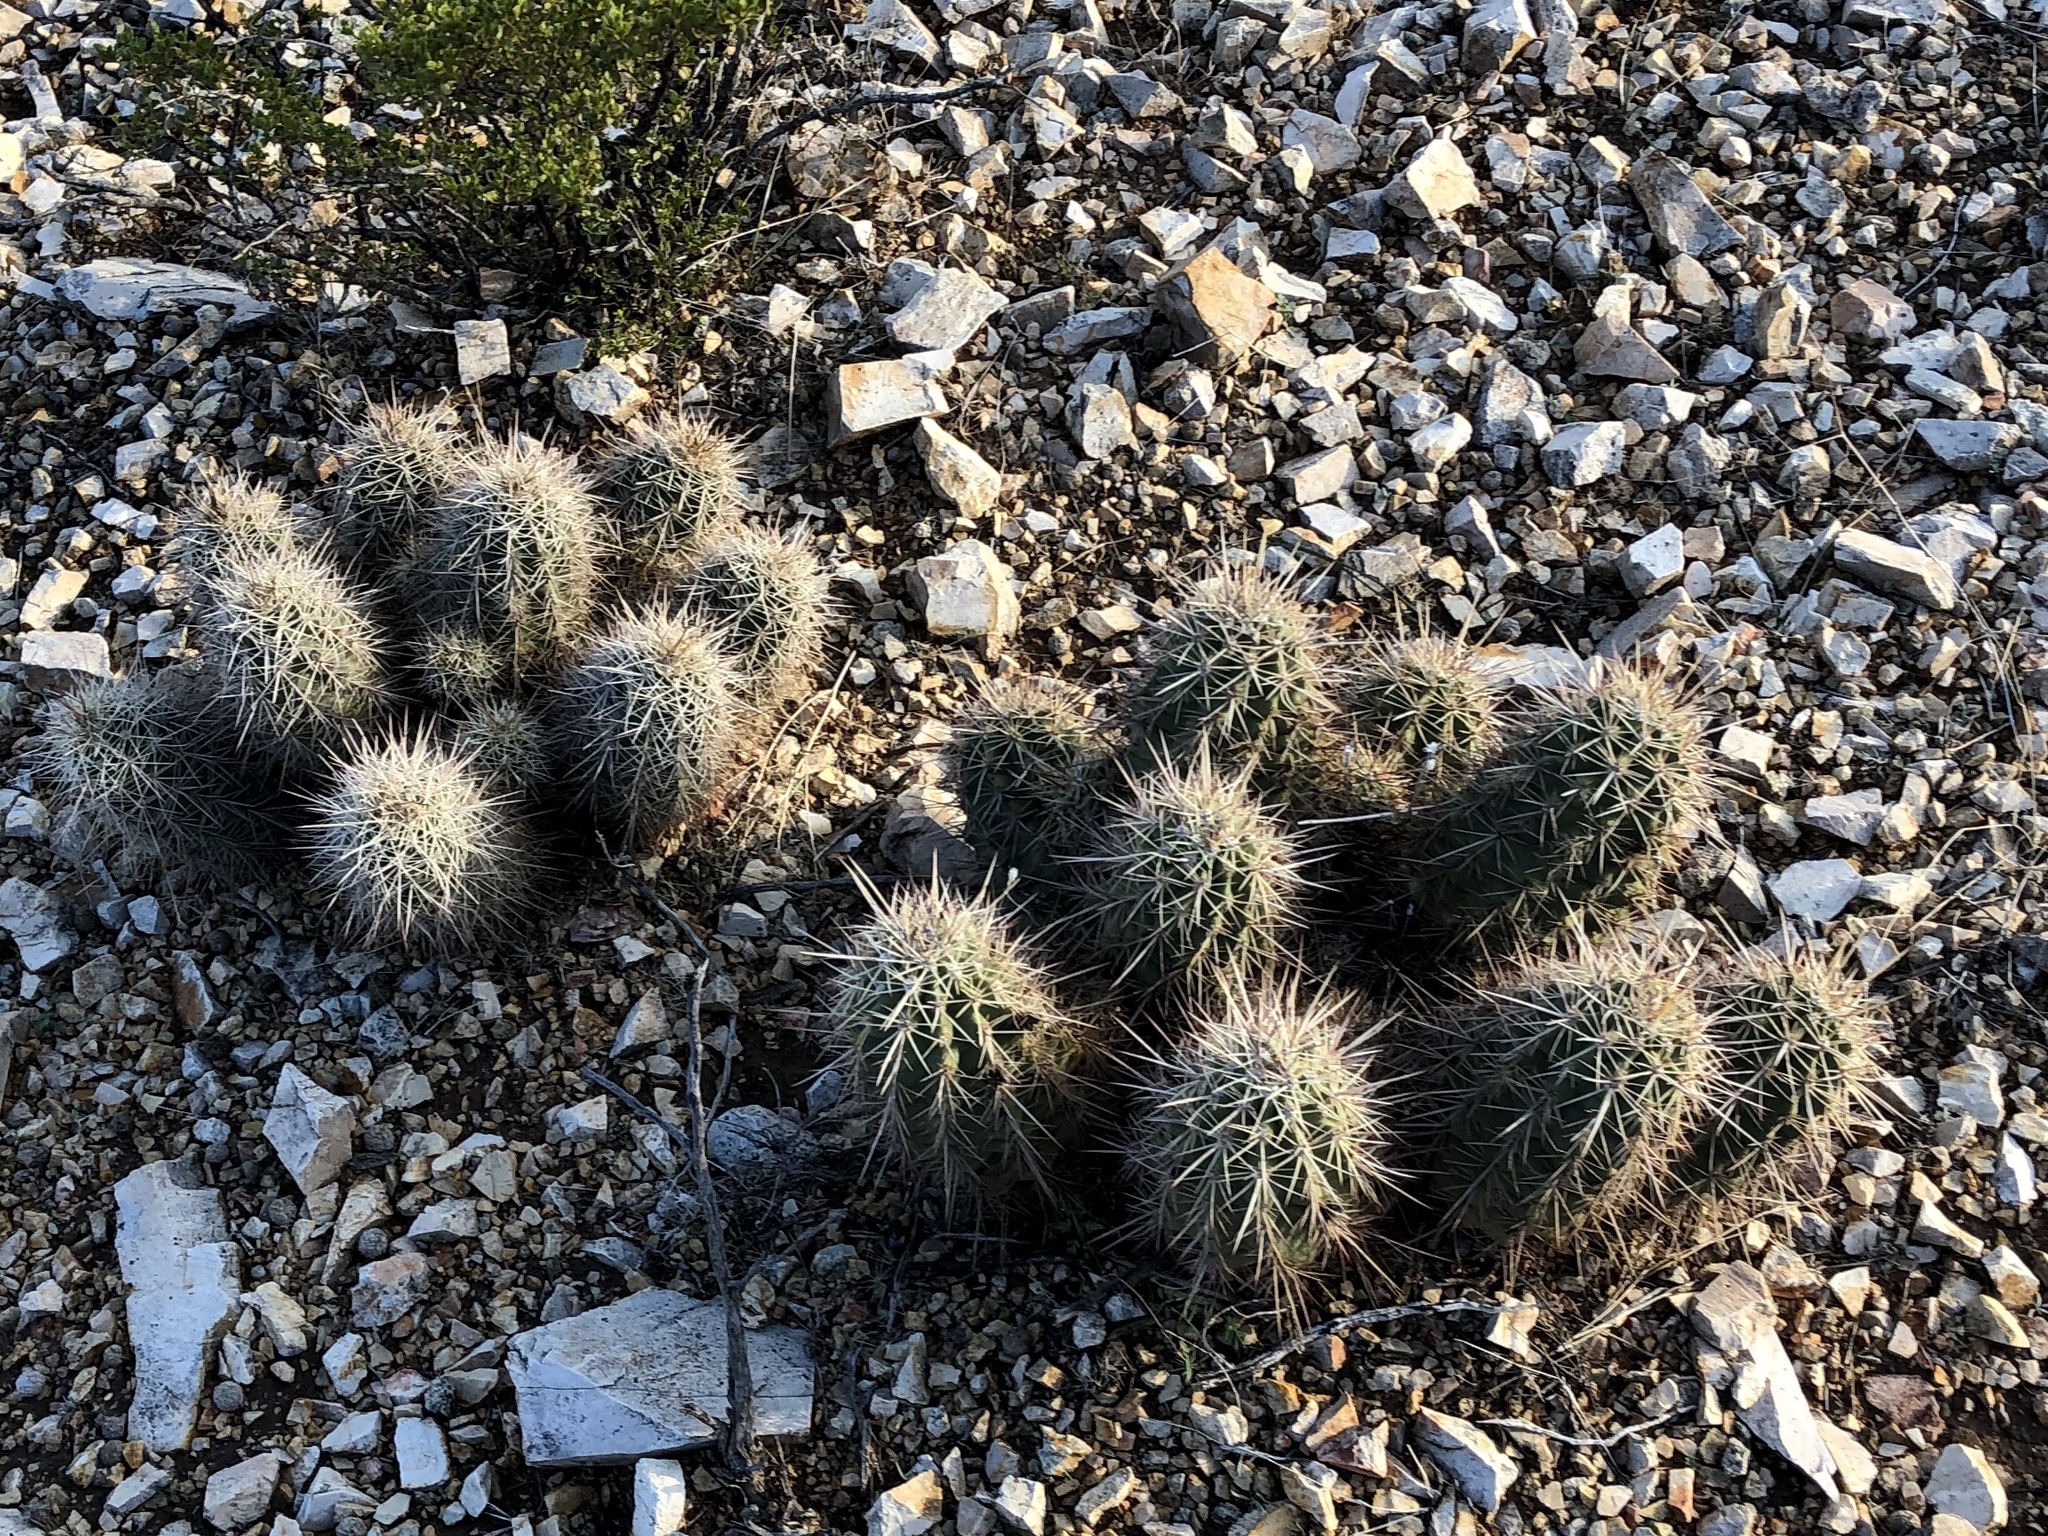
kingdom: Plantae
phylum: Tracheophyta
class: Magnoliopsida
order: Caryophyllales
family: Cactaceae
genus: Echinocereus
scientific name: Echinocereus coccineus
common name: Scarlet hedgehog cactus
